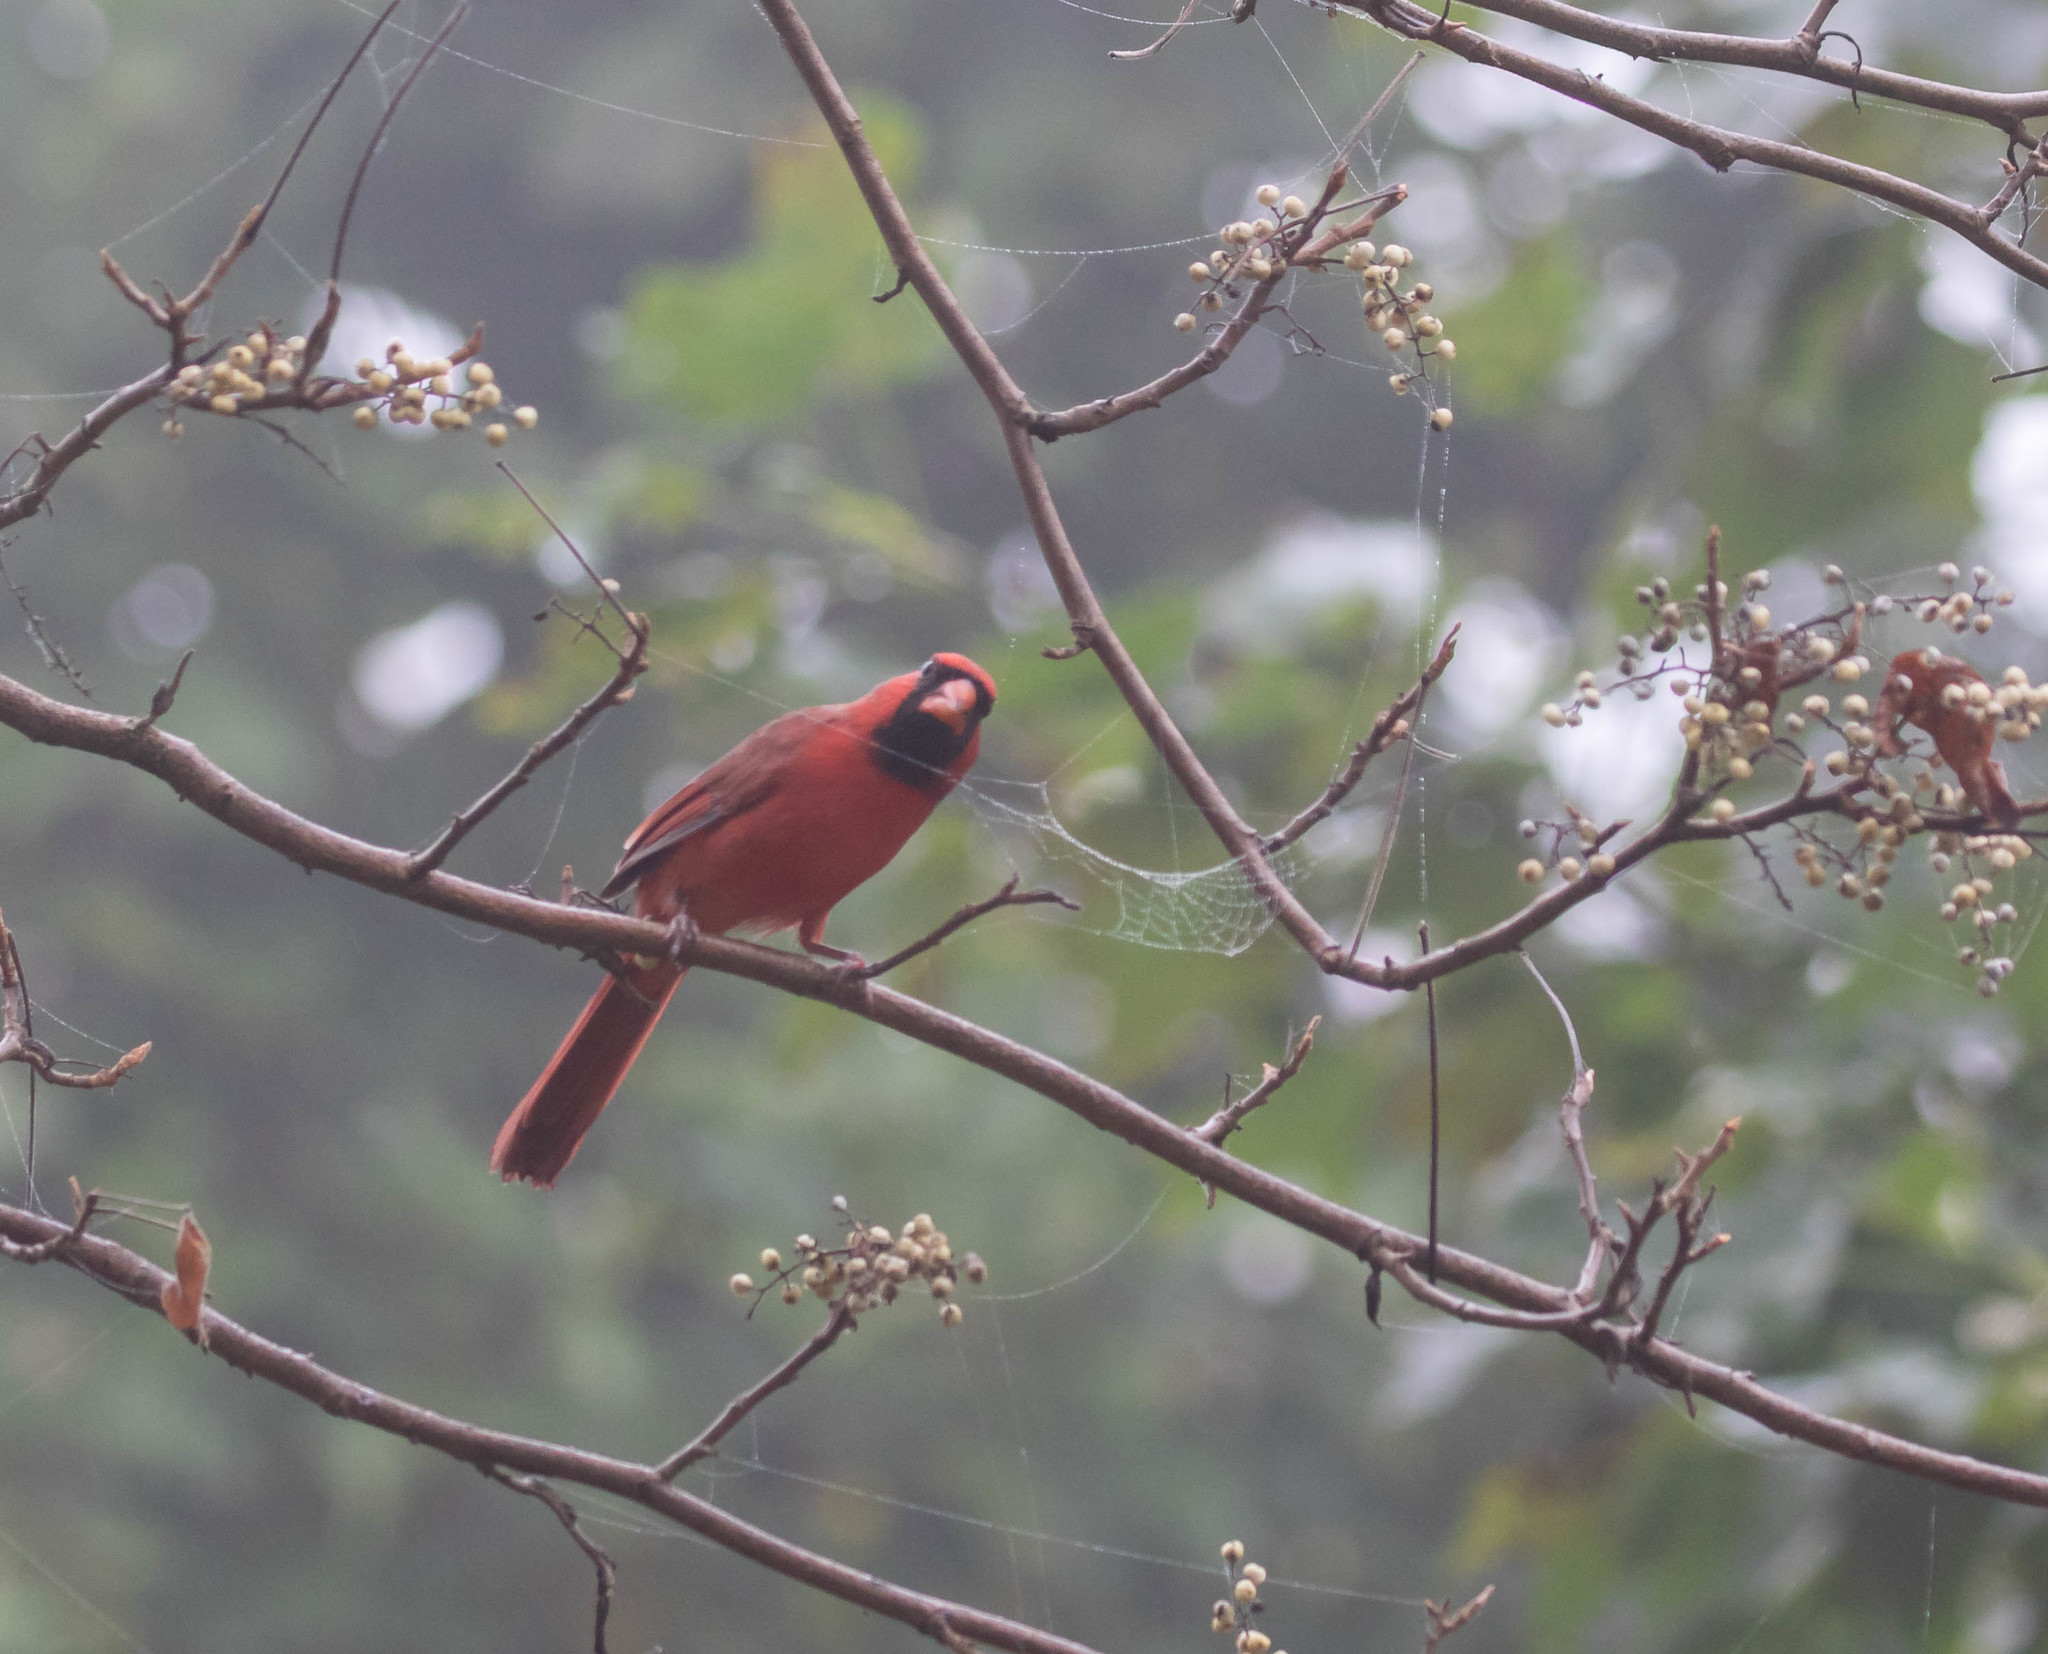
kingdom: Animalia
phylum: Chordata
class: Aves
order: Passeriformes
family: Cardinalidae
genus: Cardinalis
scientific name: Cardinalis cardinalis
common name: Northern cardinal
